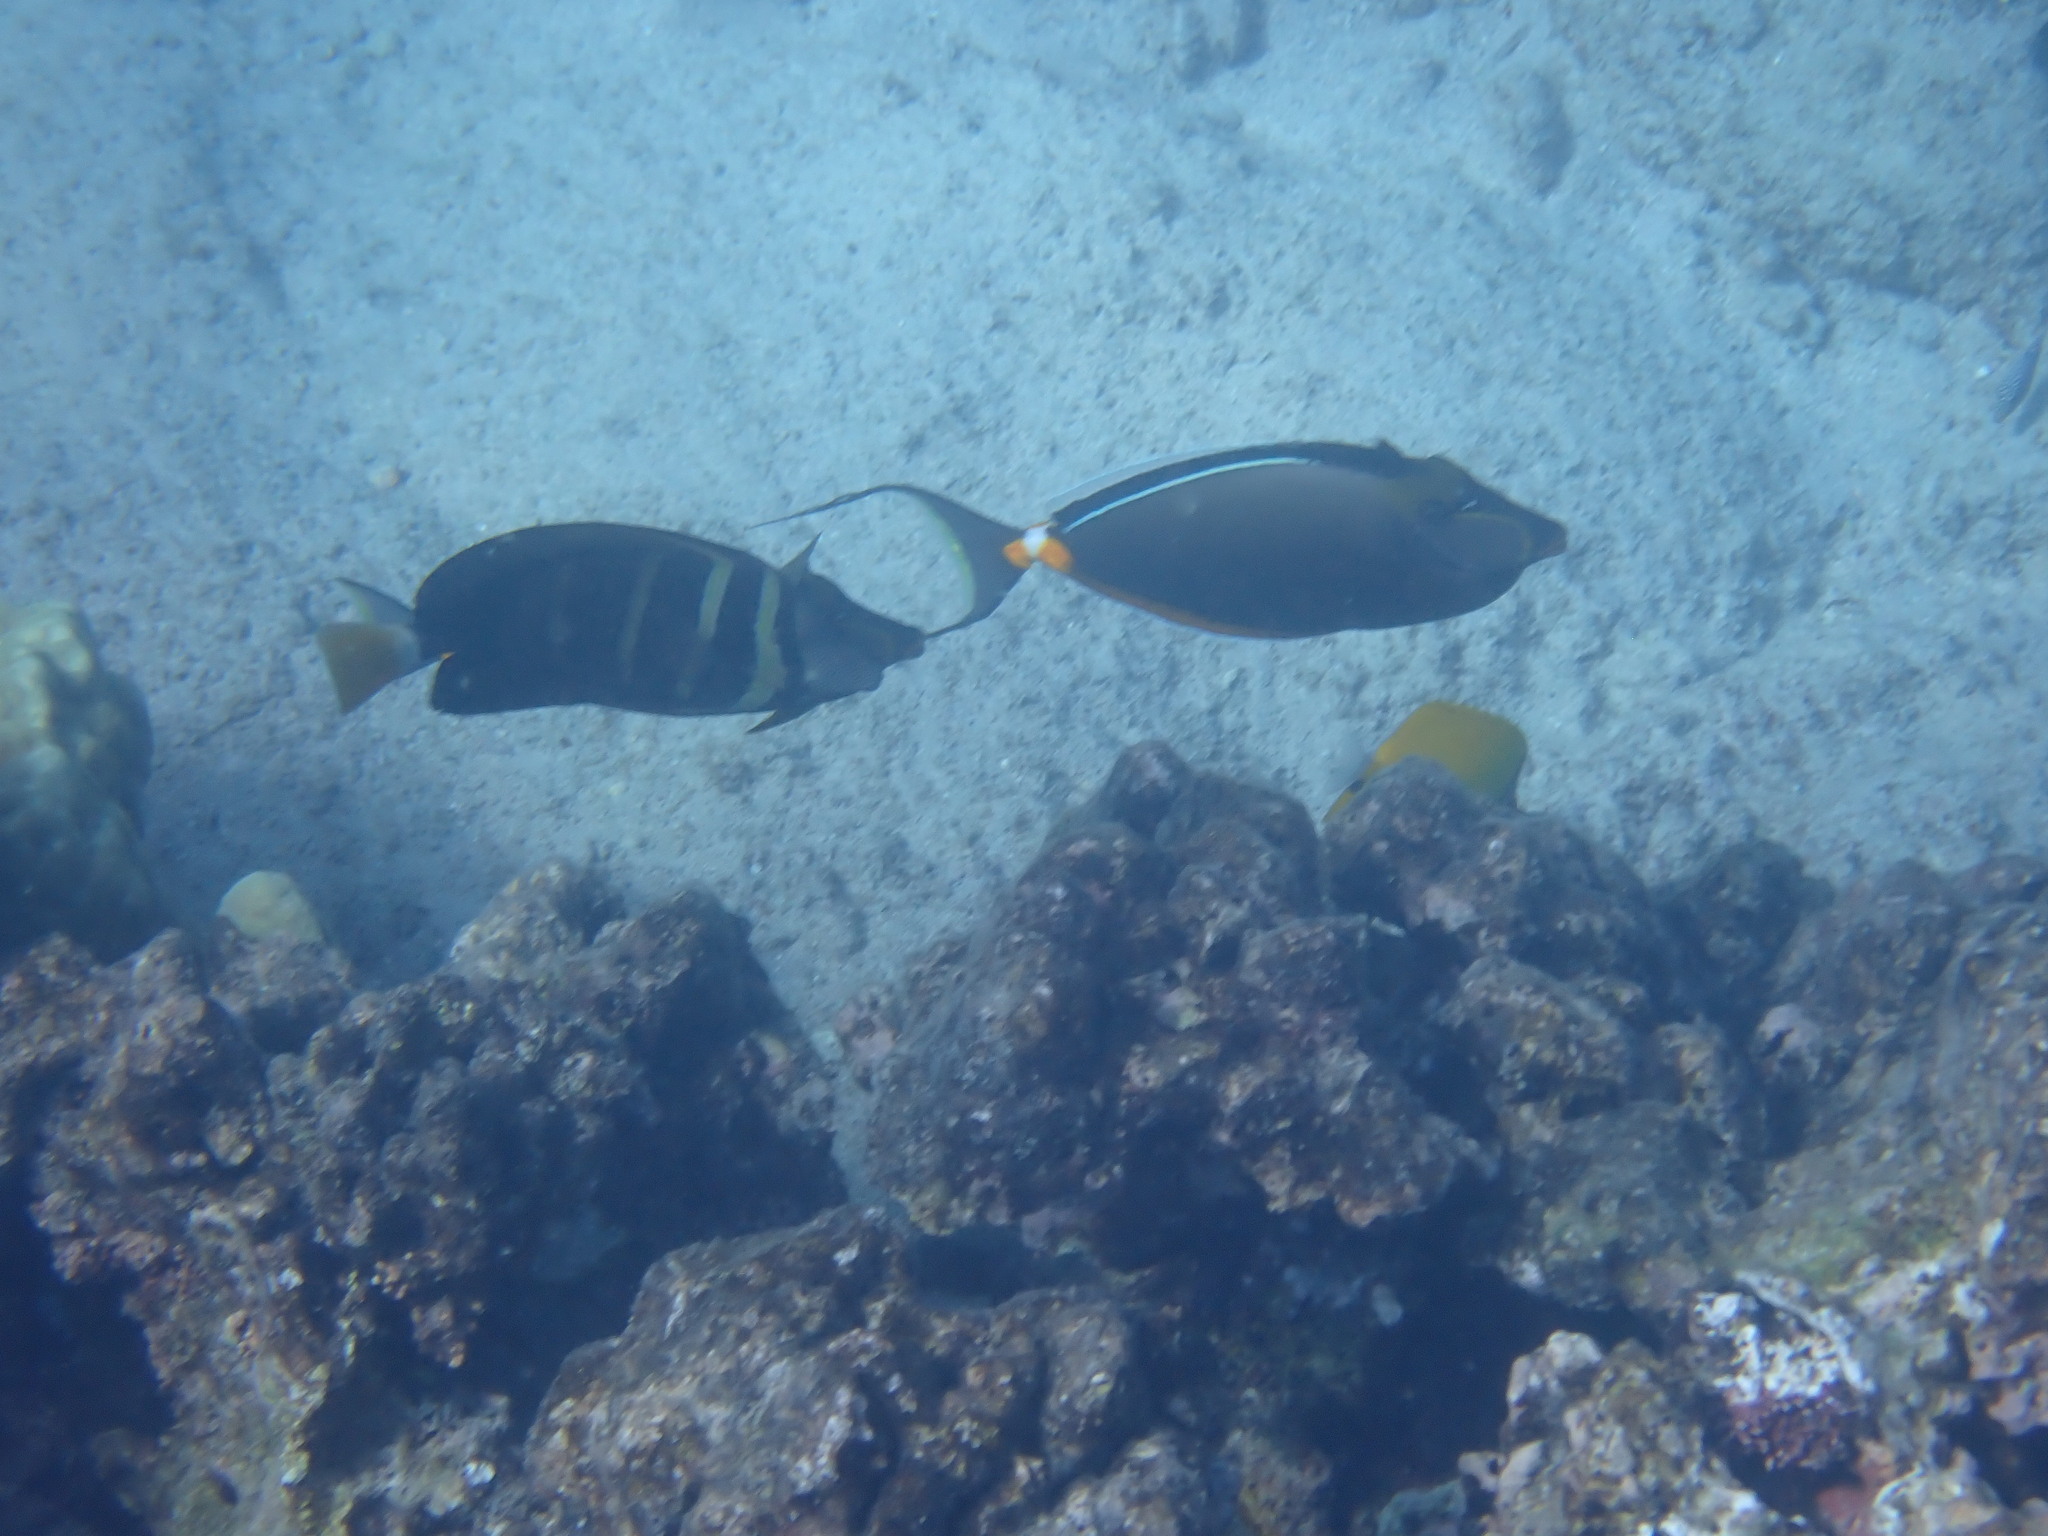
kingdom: Animalia
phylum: Chordata
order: Perciformes
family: Acanthuridae
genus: Naso
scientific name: Naso lituratus
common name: Orangespine unicornfish
